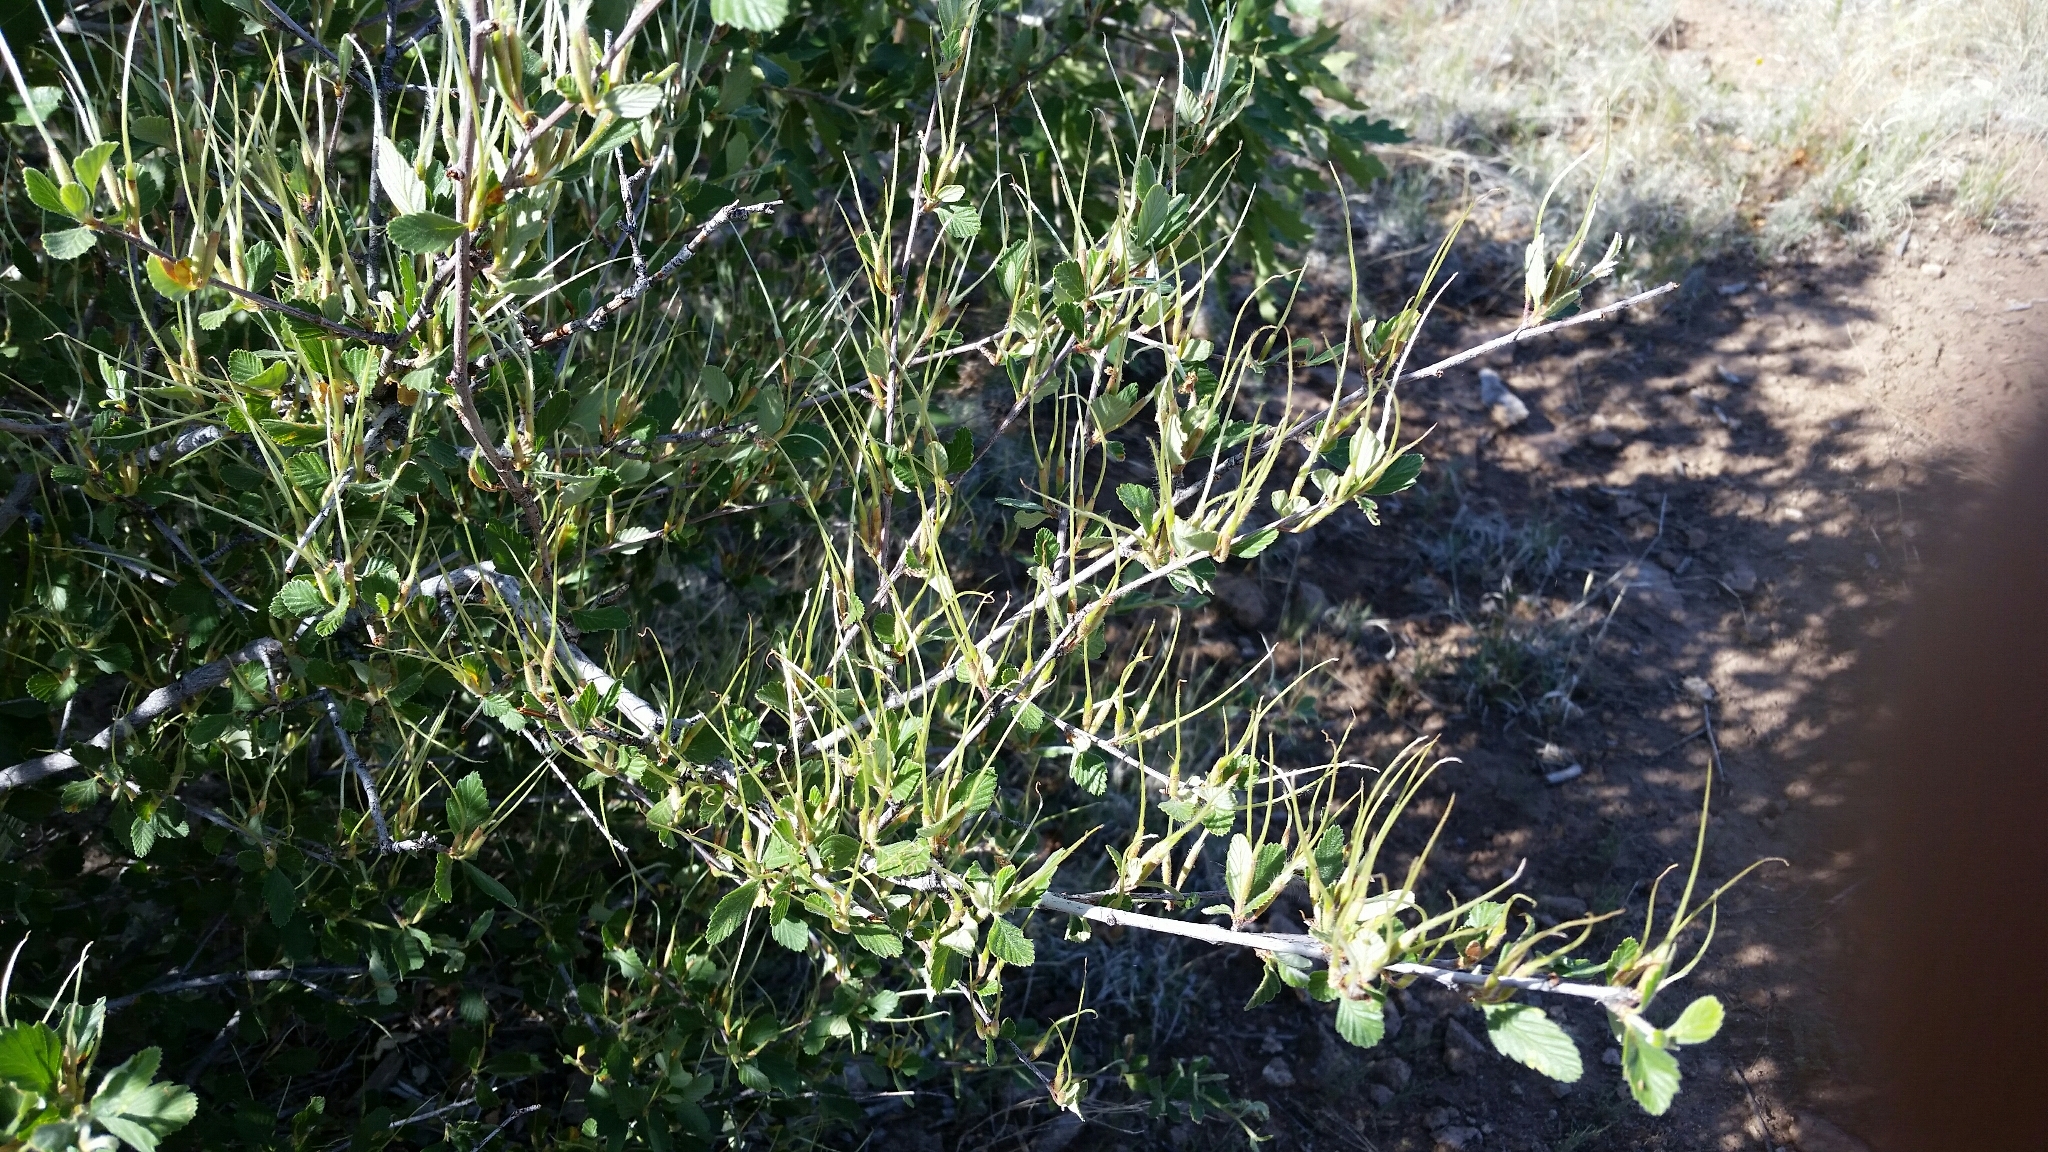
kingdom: Plantae
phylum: Tracheophyta
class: Magnoliopsida
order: Rosales
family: Rosaceae
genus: Cercocarpus
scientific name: Cercocarpus montanus
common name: Alder-leaf cercocarpus
